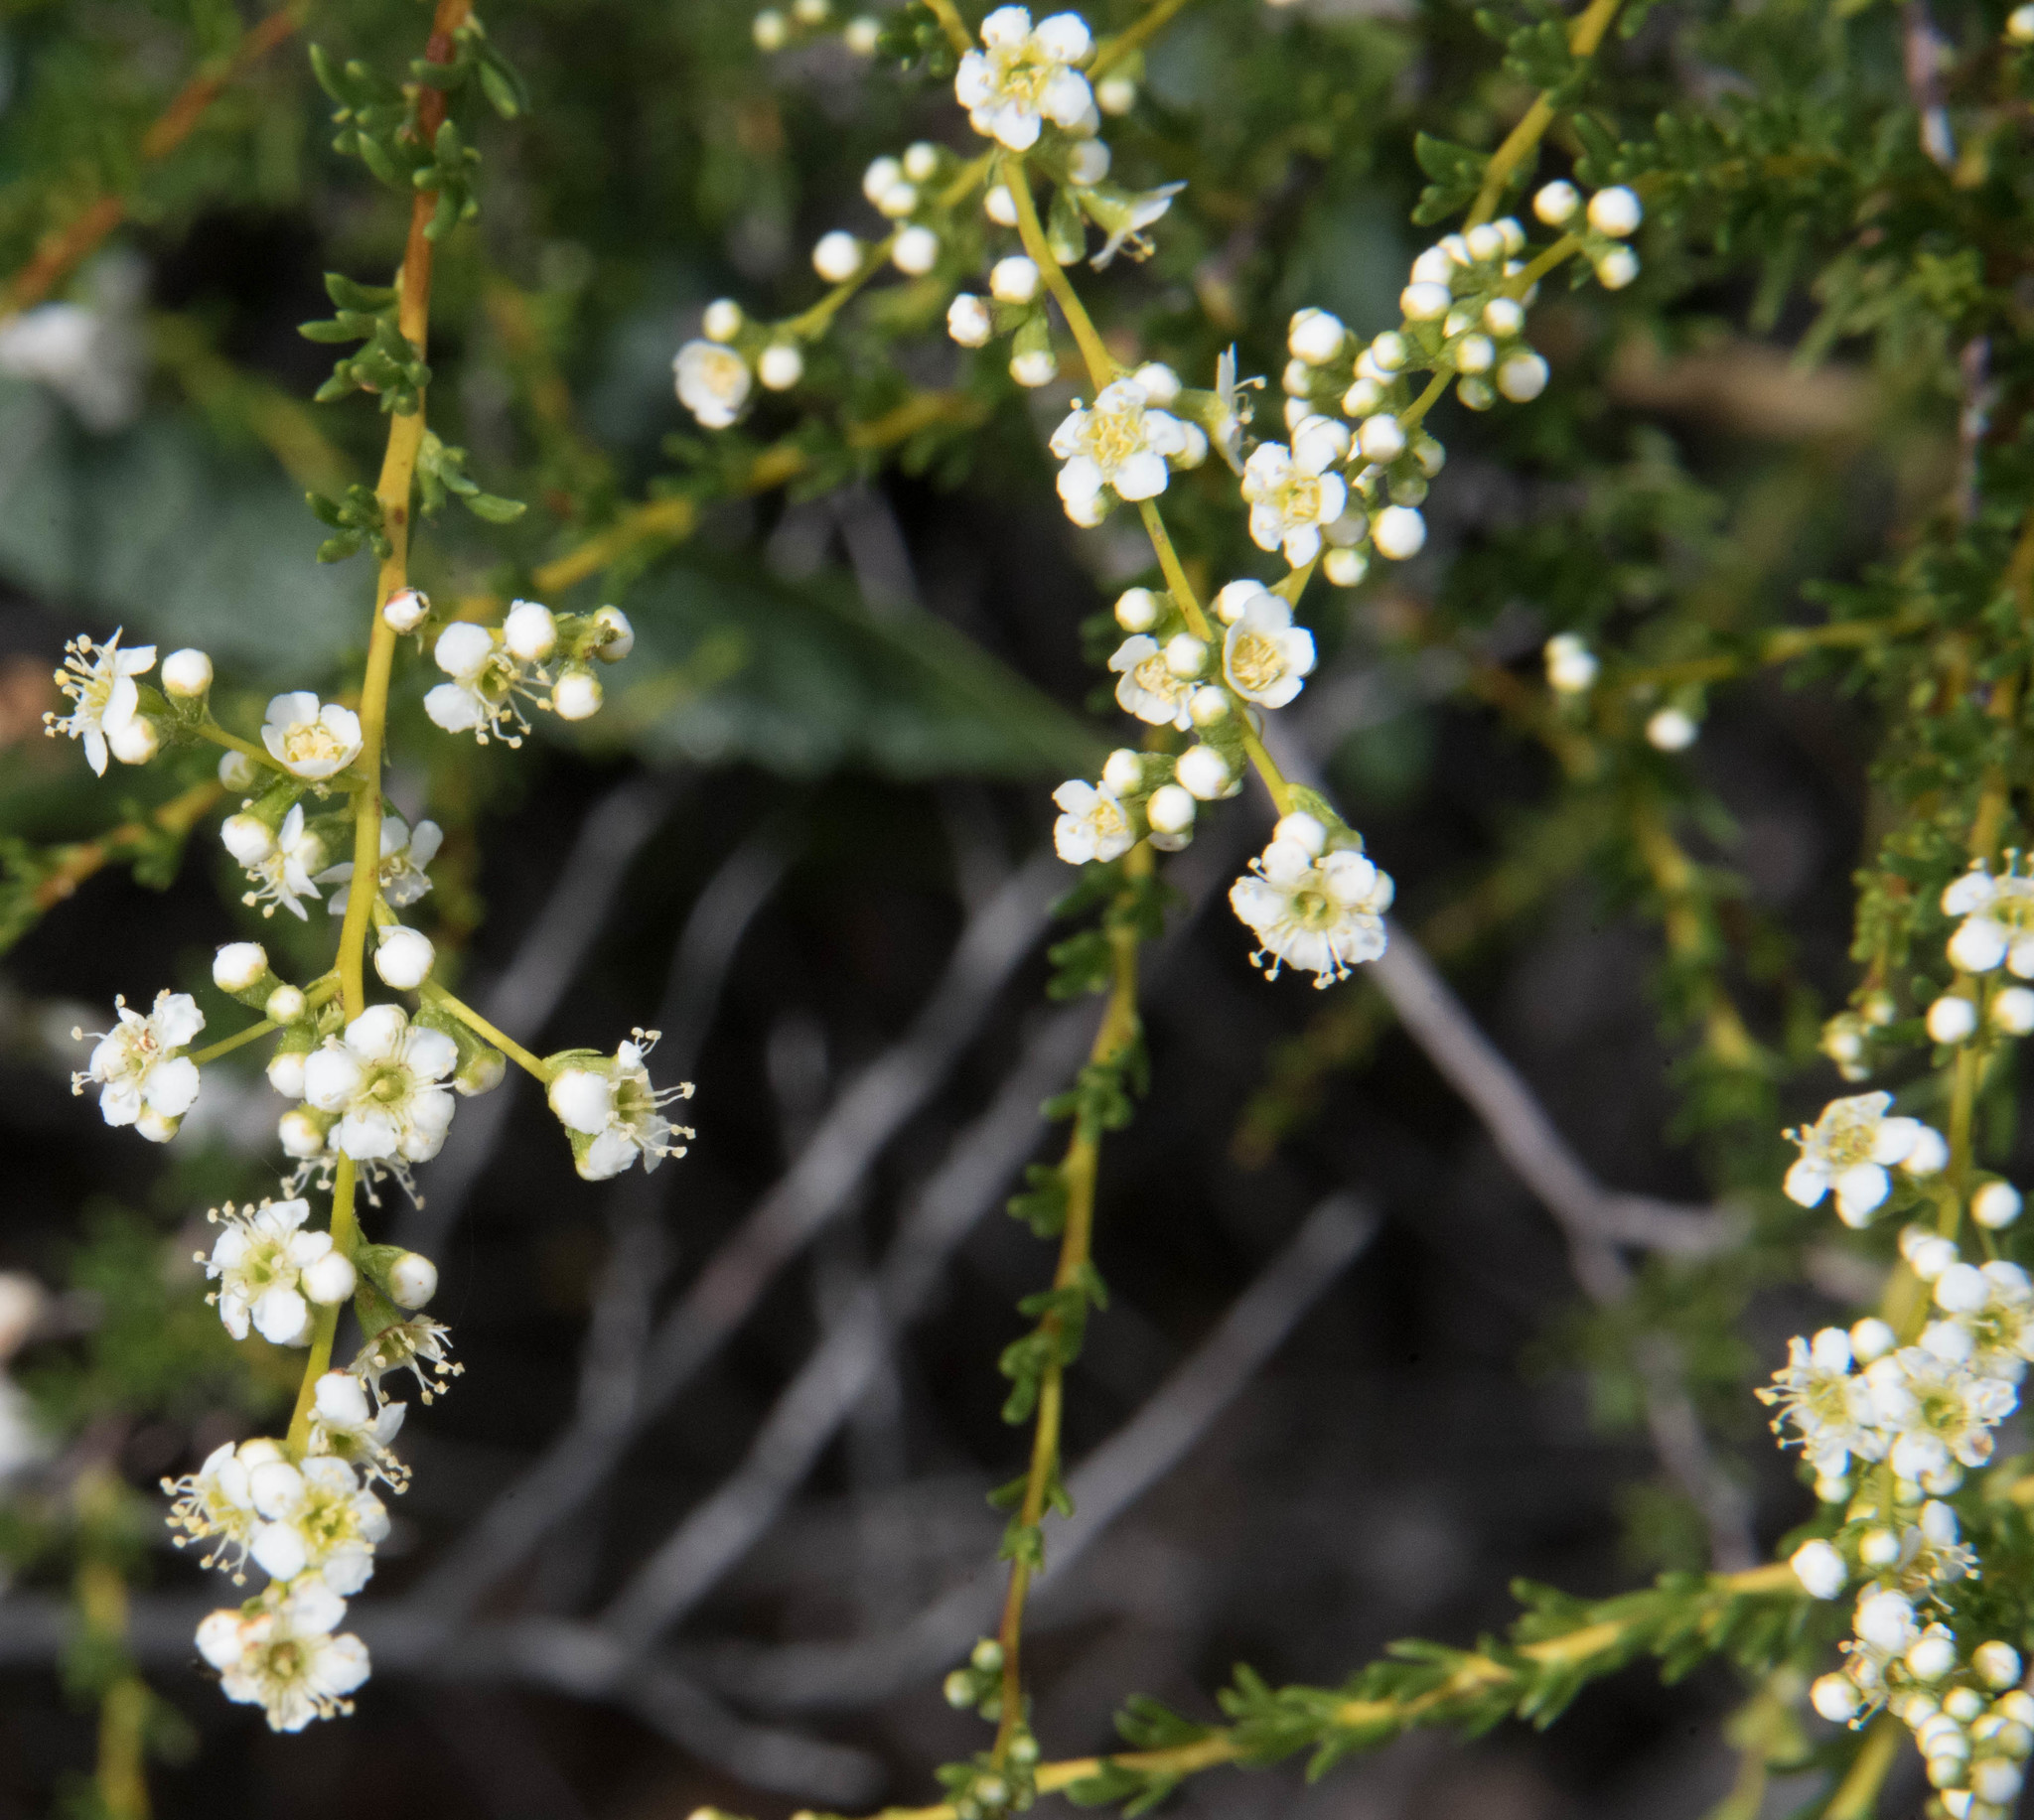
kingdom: Plantae
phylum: Tracheophyta
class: Magnoliopsida
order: Rosales
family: Rosaceae
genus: Adenostoma
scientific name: Adenostoma fasciculatum
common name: Chamise
